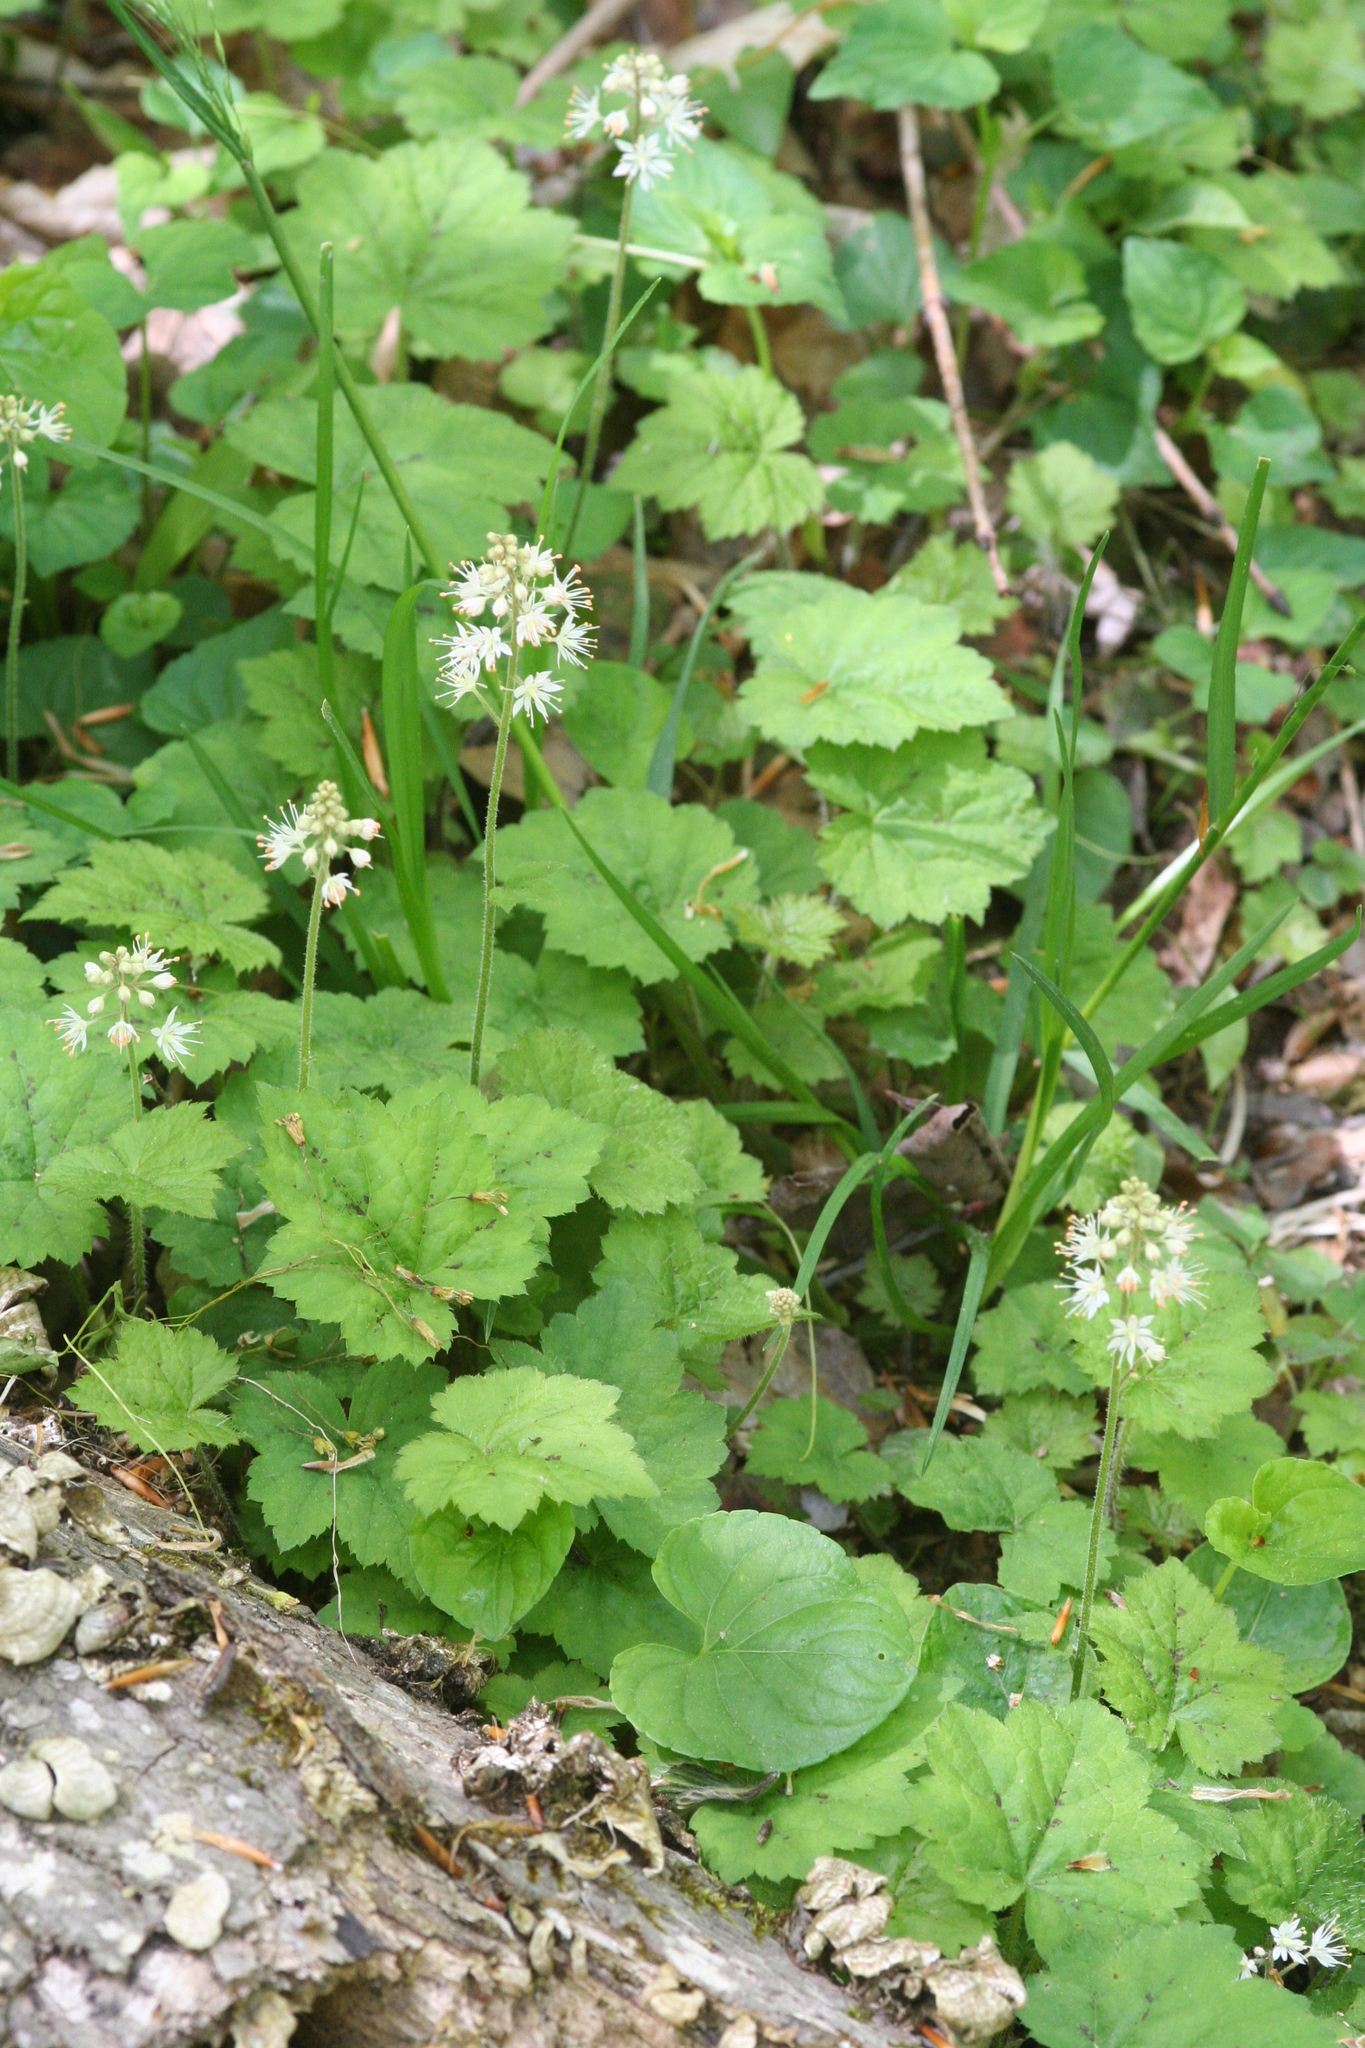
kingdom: Plantae
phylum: Tracheophyta
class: Magnoliopsida
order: Saxifragales
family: Saxifragaceae
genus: Tiarella
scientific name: Tiarella stolonifera
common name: Stoloniferous foamflower
